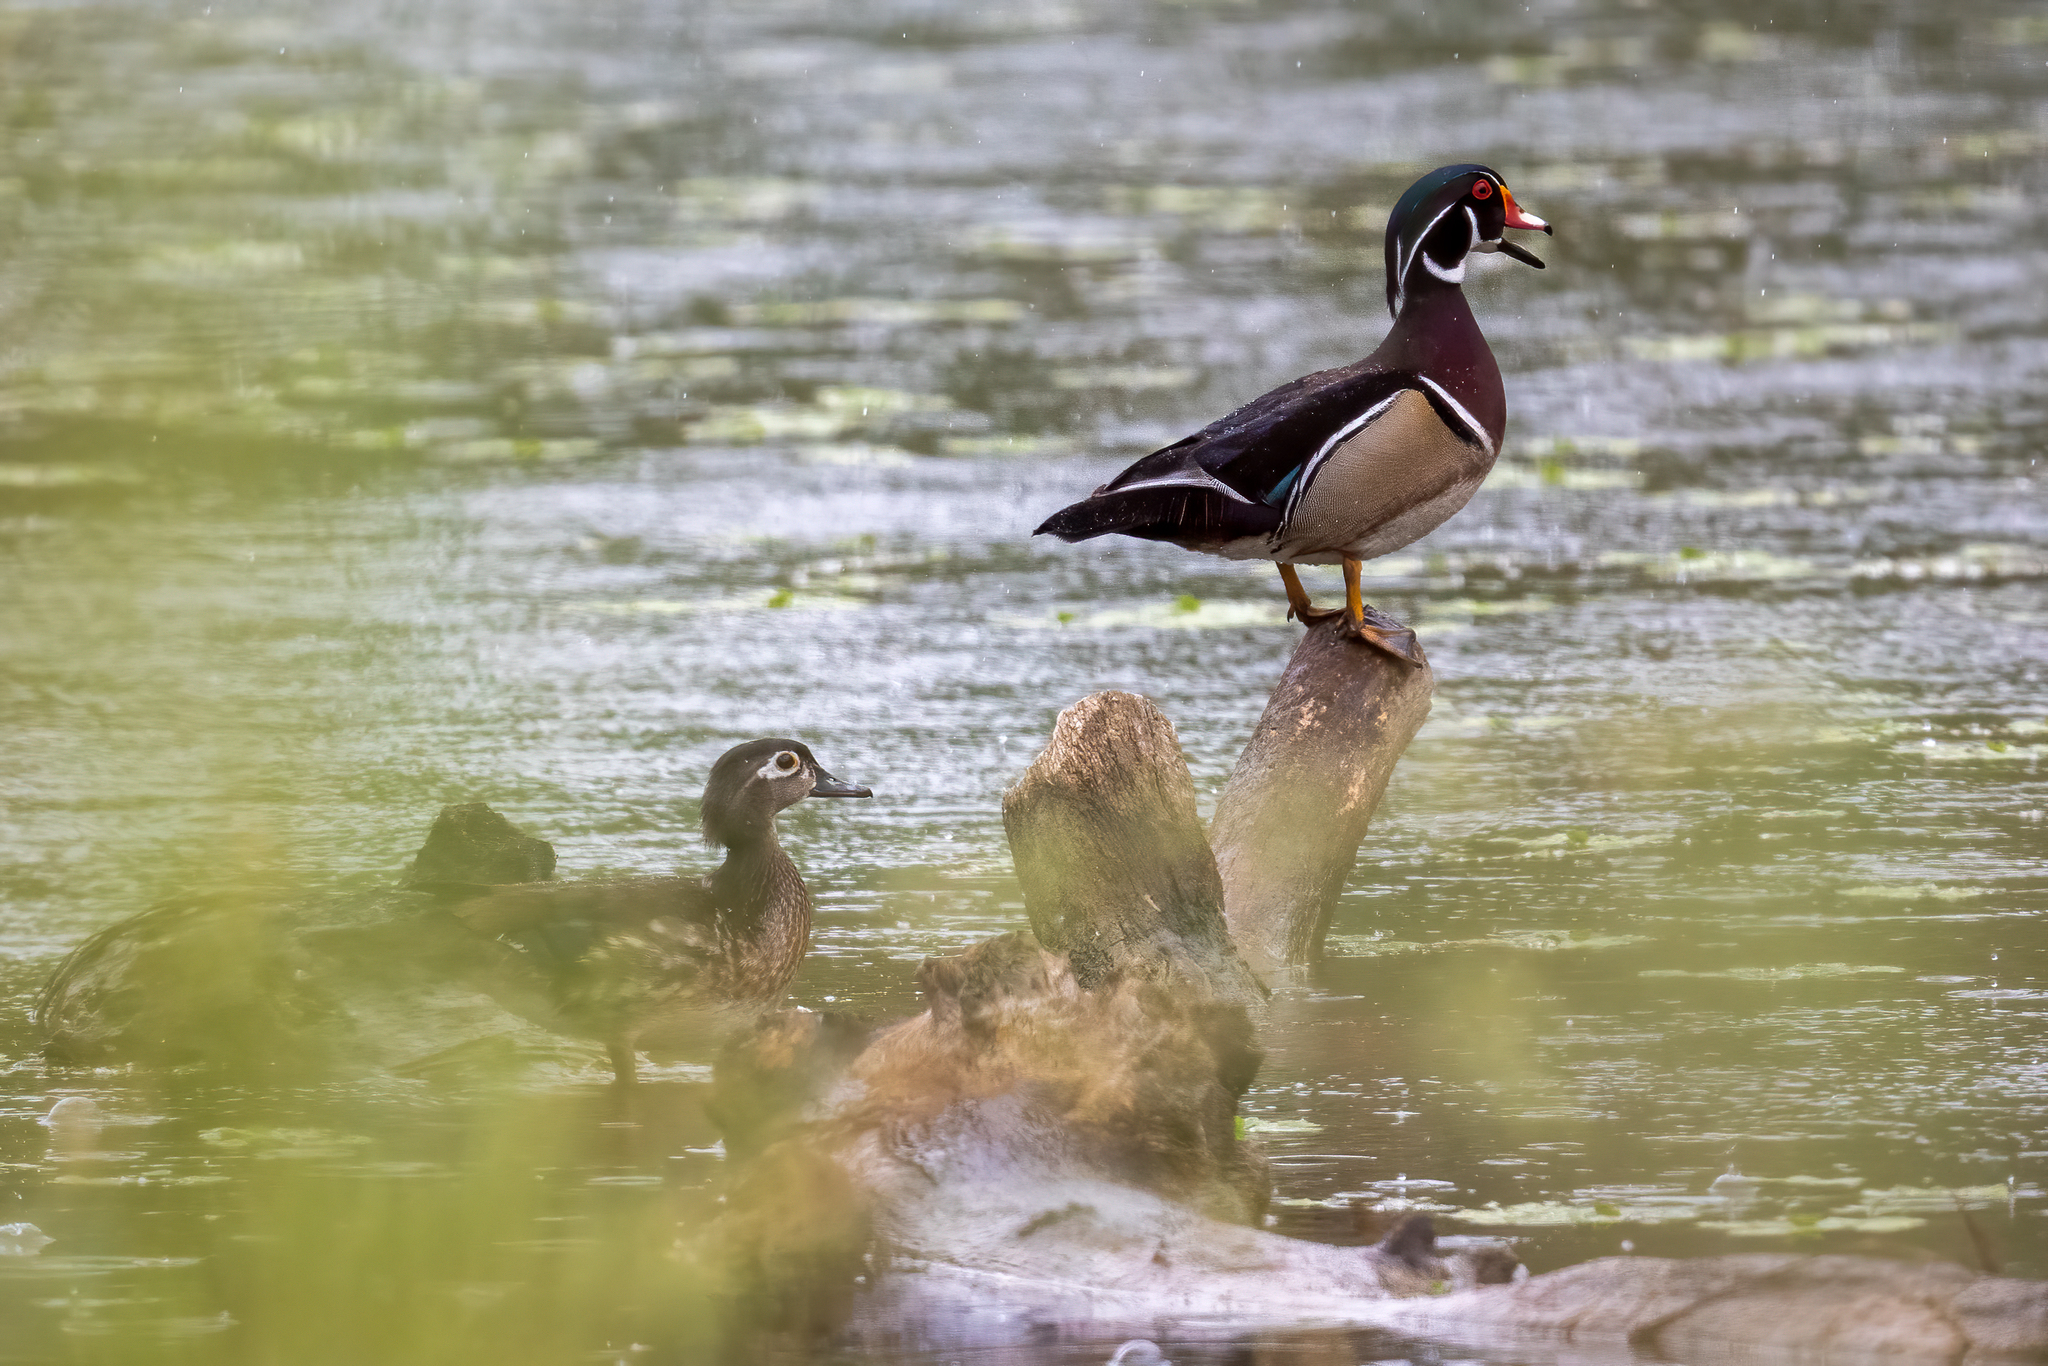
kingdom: Animalia
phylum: Chordata
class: Aves
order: Anseriformes
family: Anatidae
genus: Aix
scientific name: Aix sponsa
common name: Wood duck
